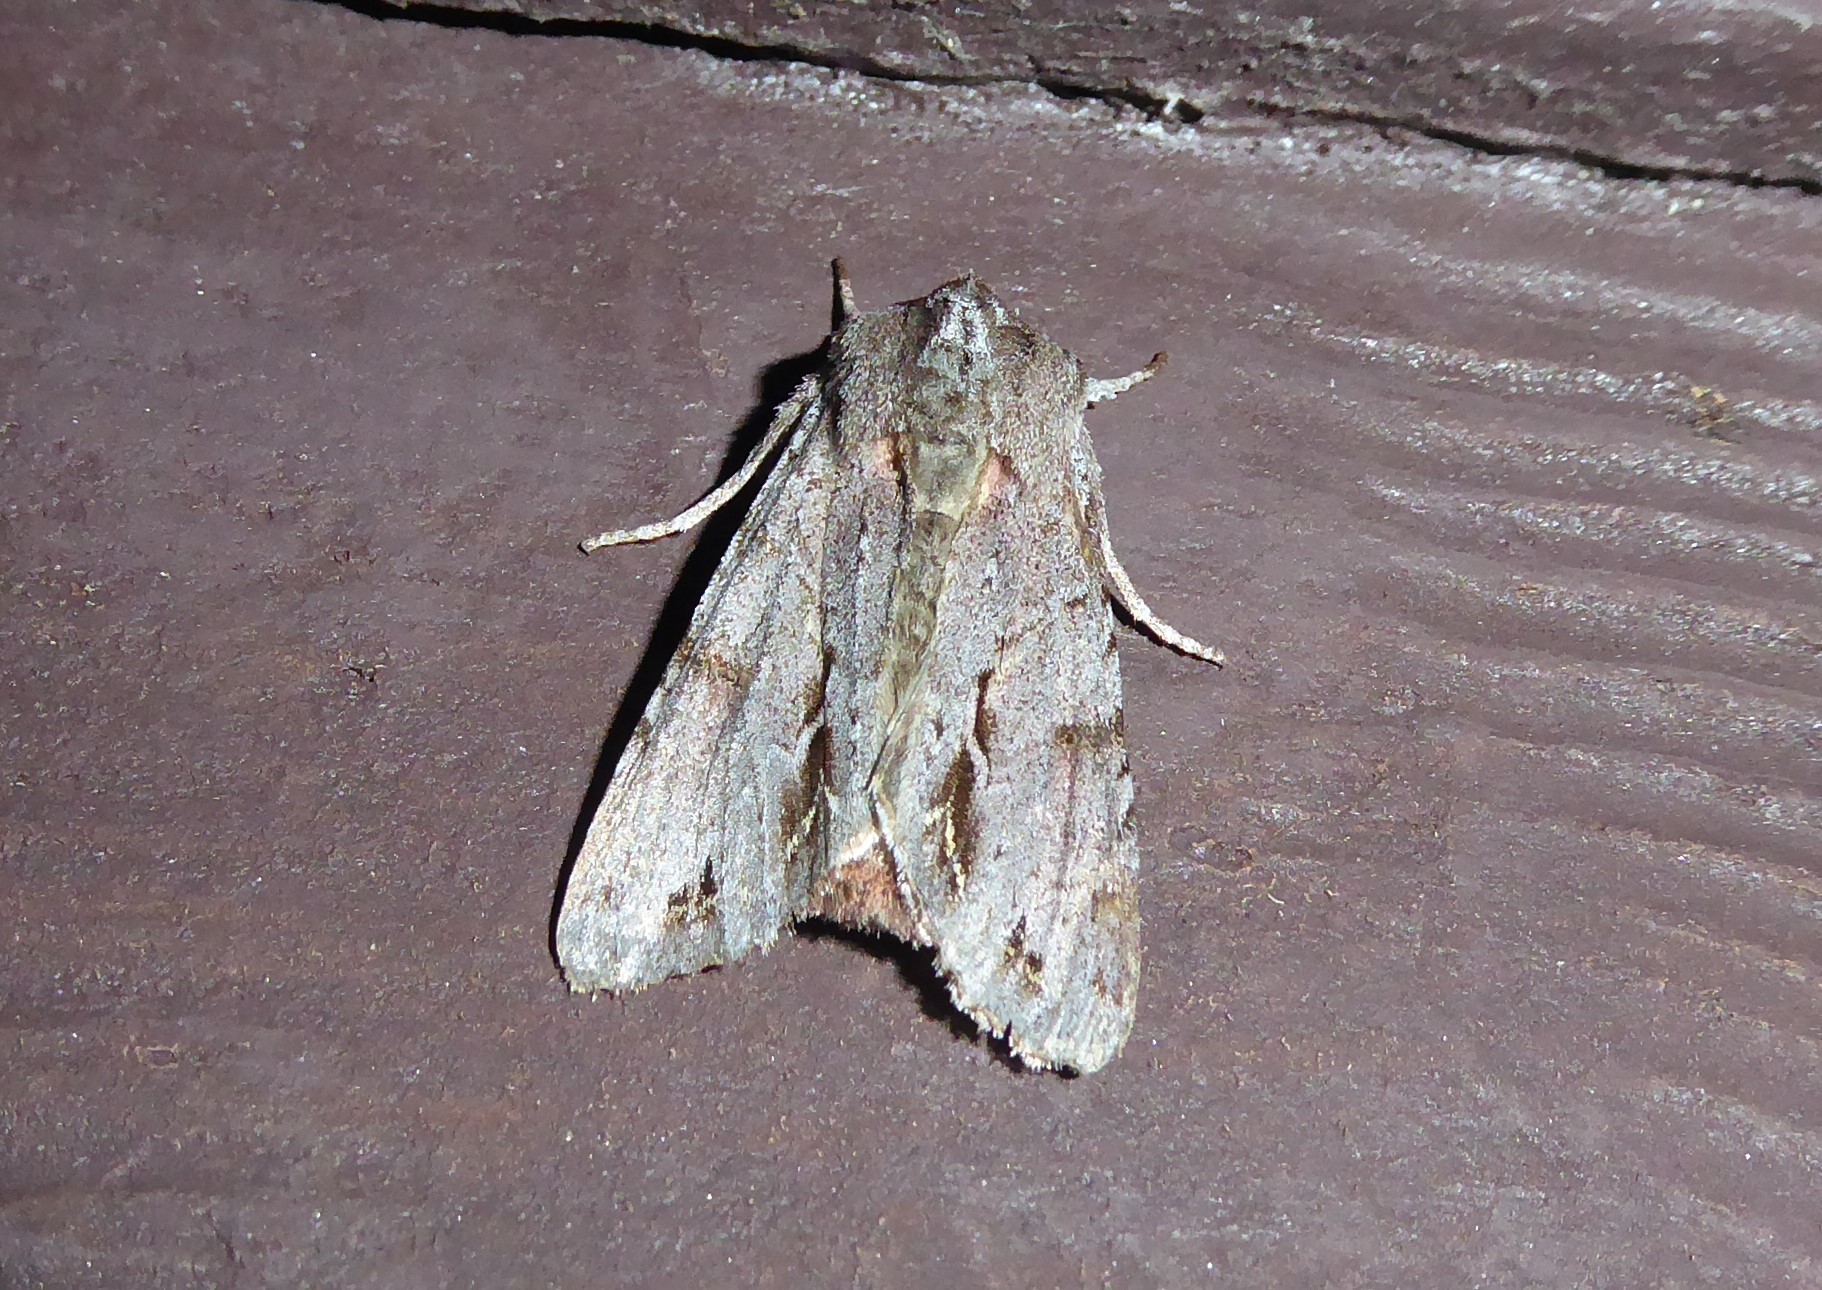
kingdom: Animalia
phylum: Arthropoda
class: Insecta
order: Lepidoptera
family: Noctuidae
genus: Ichneutica
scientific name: Ichneutica
